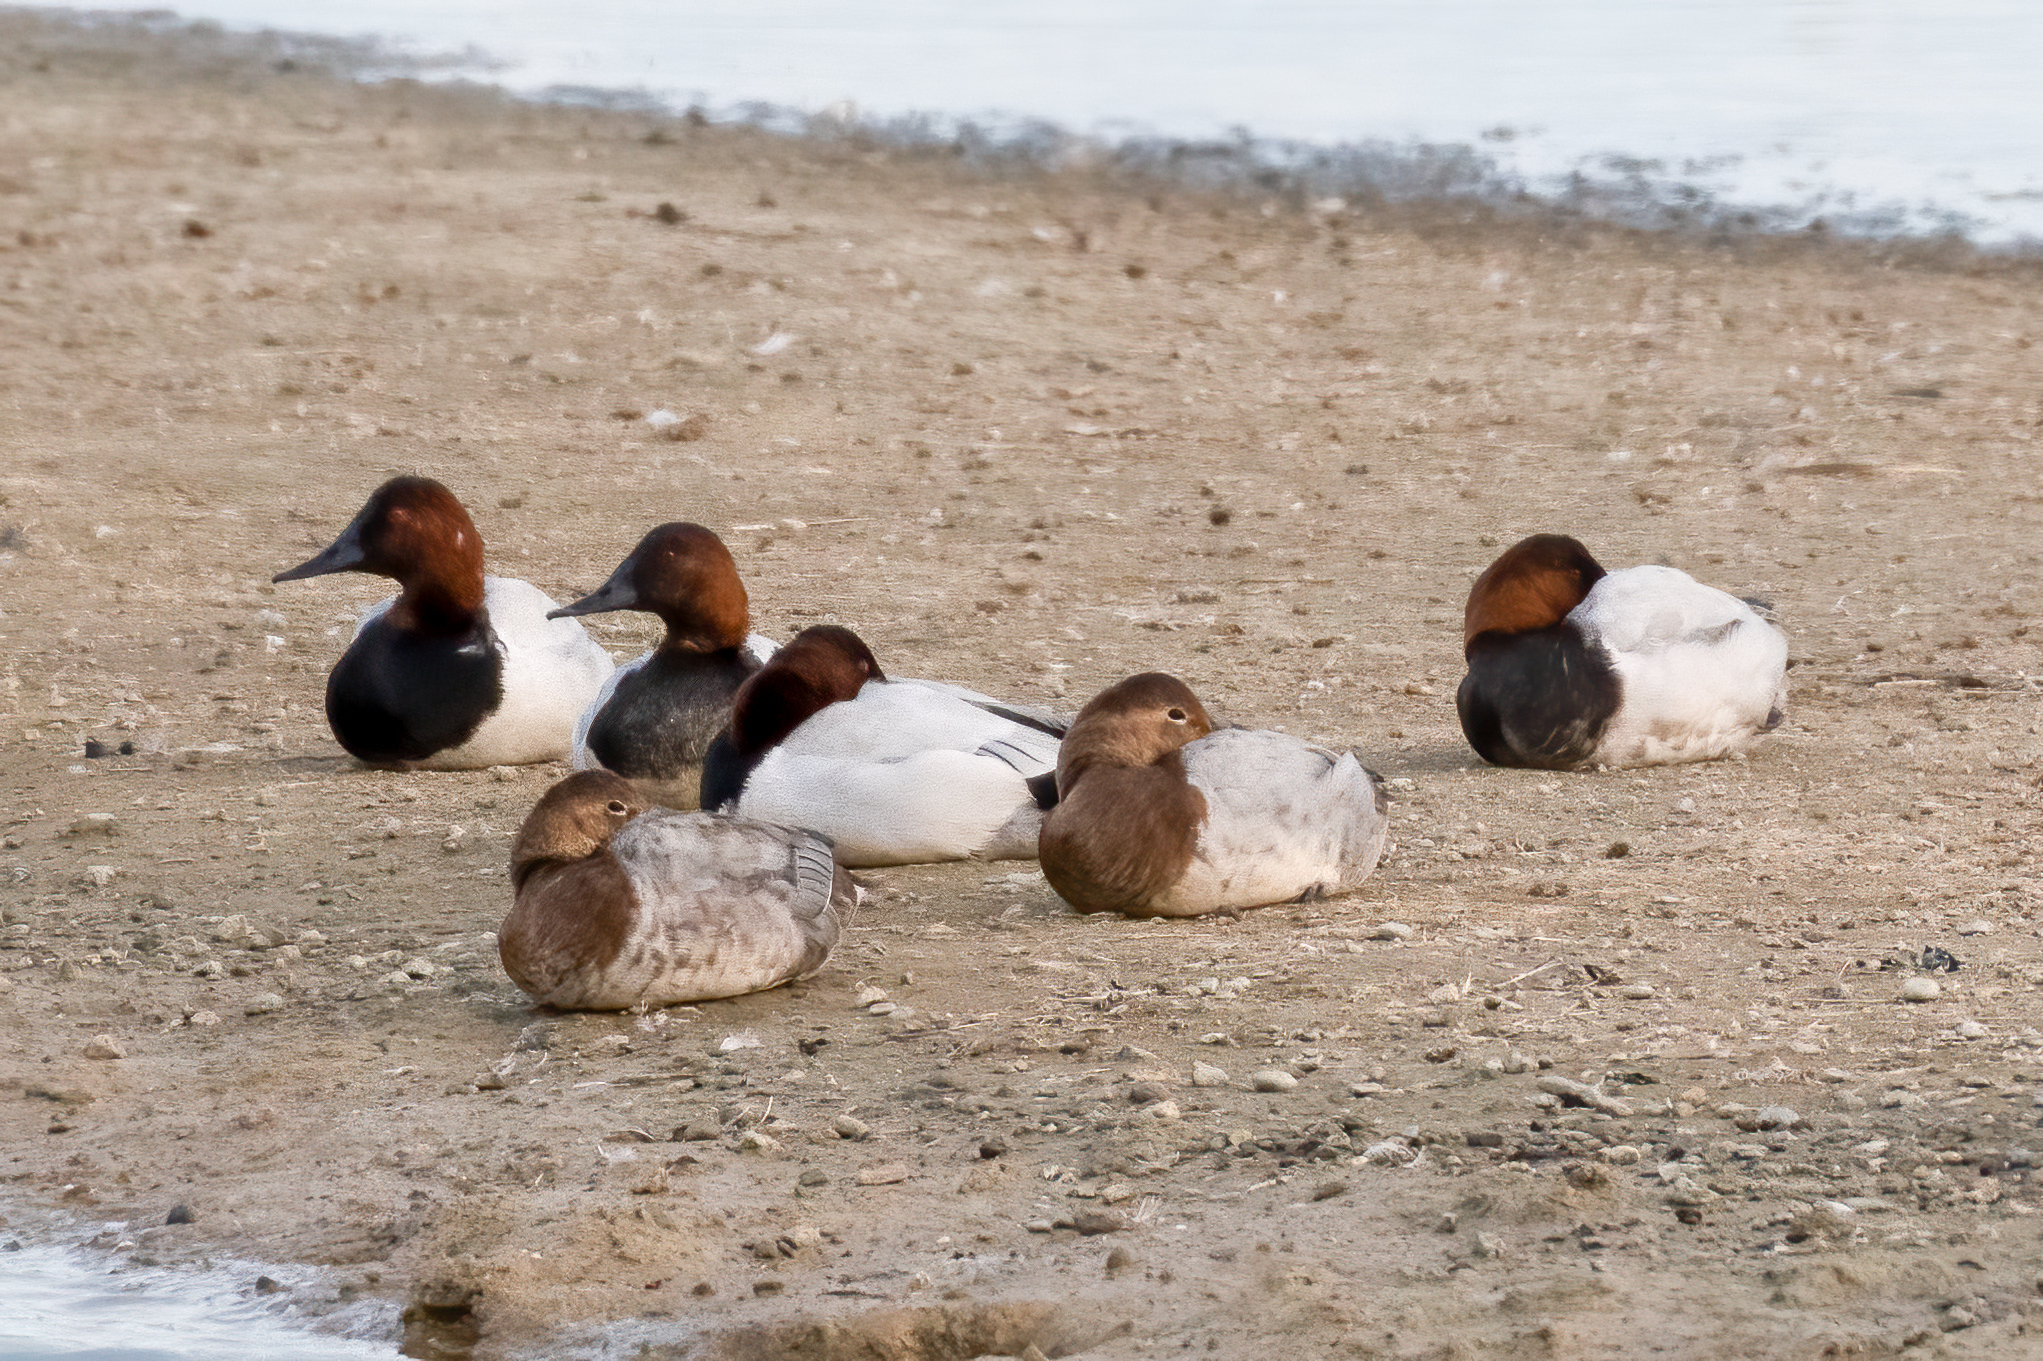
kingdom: Animalia
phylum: Chordata
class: Aves
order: Anseriformes
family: Anatidae
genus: Aythya
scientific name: Aythya valisineria
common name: Canvasback
